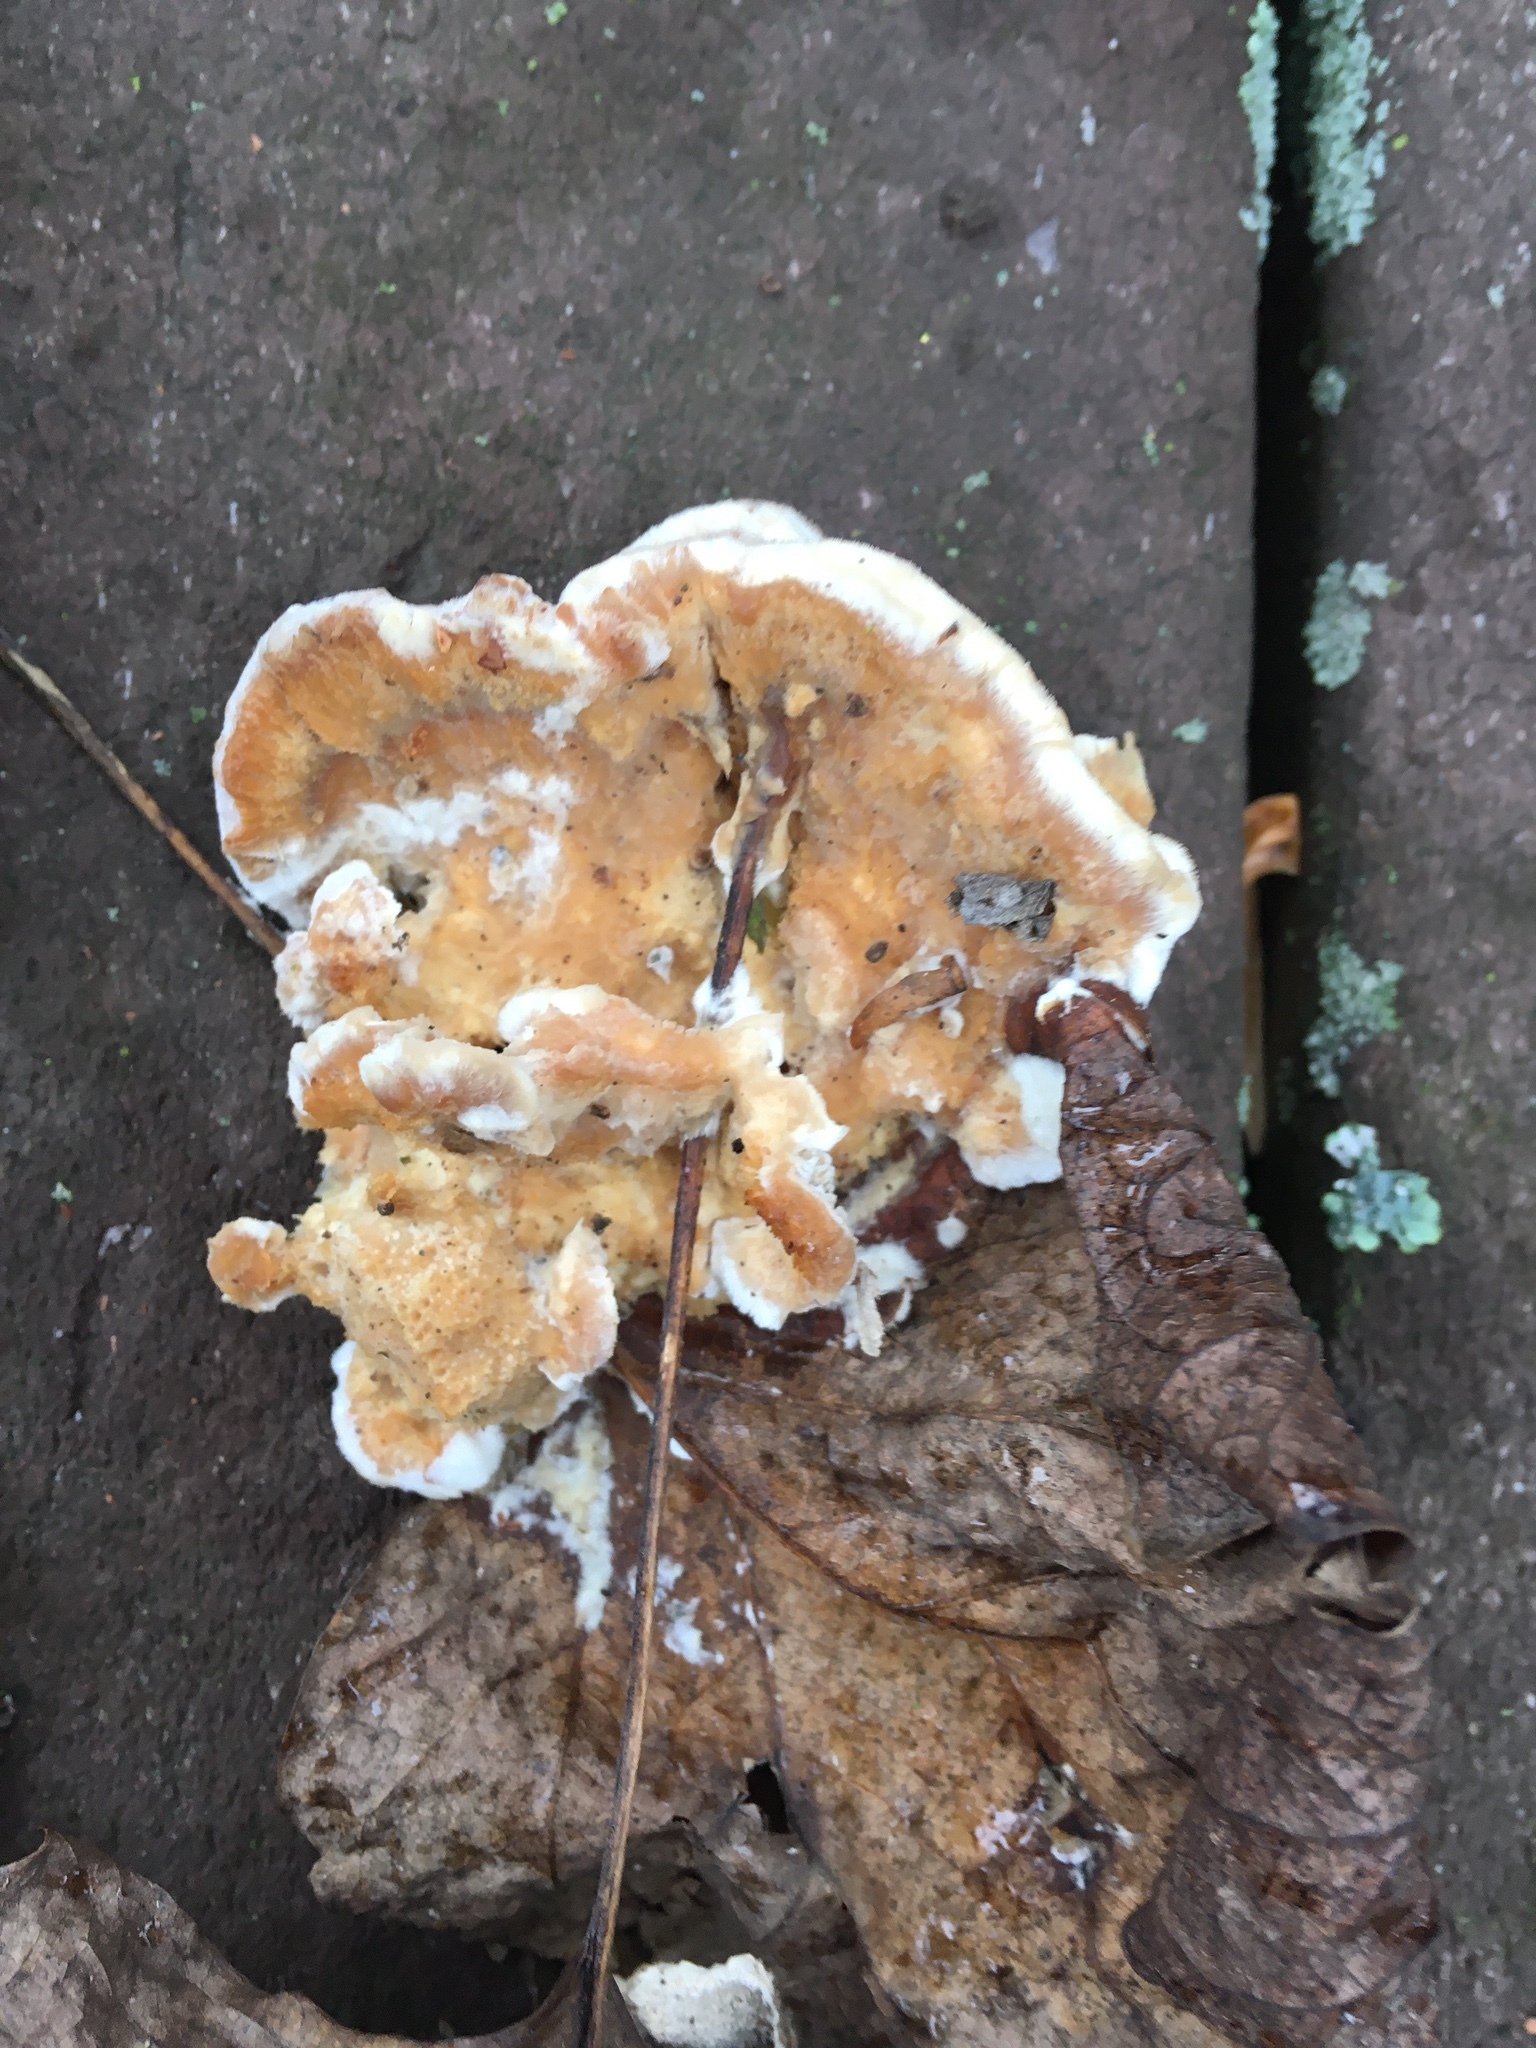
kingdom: Fungi
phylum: Basidiomycota
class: Agaricomycetes
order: Polyporales
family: Irpicaceae
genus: Trametopsis
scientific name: Trametopsis cervina
